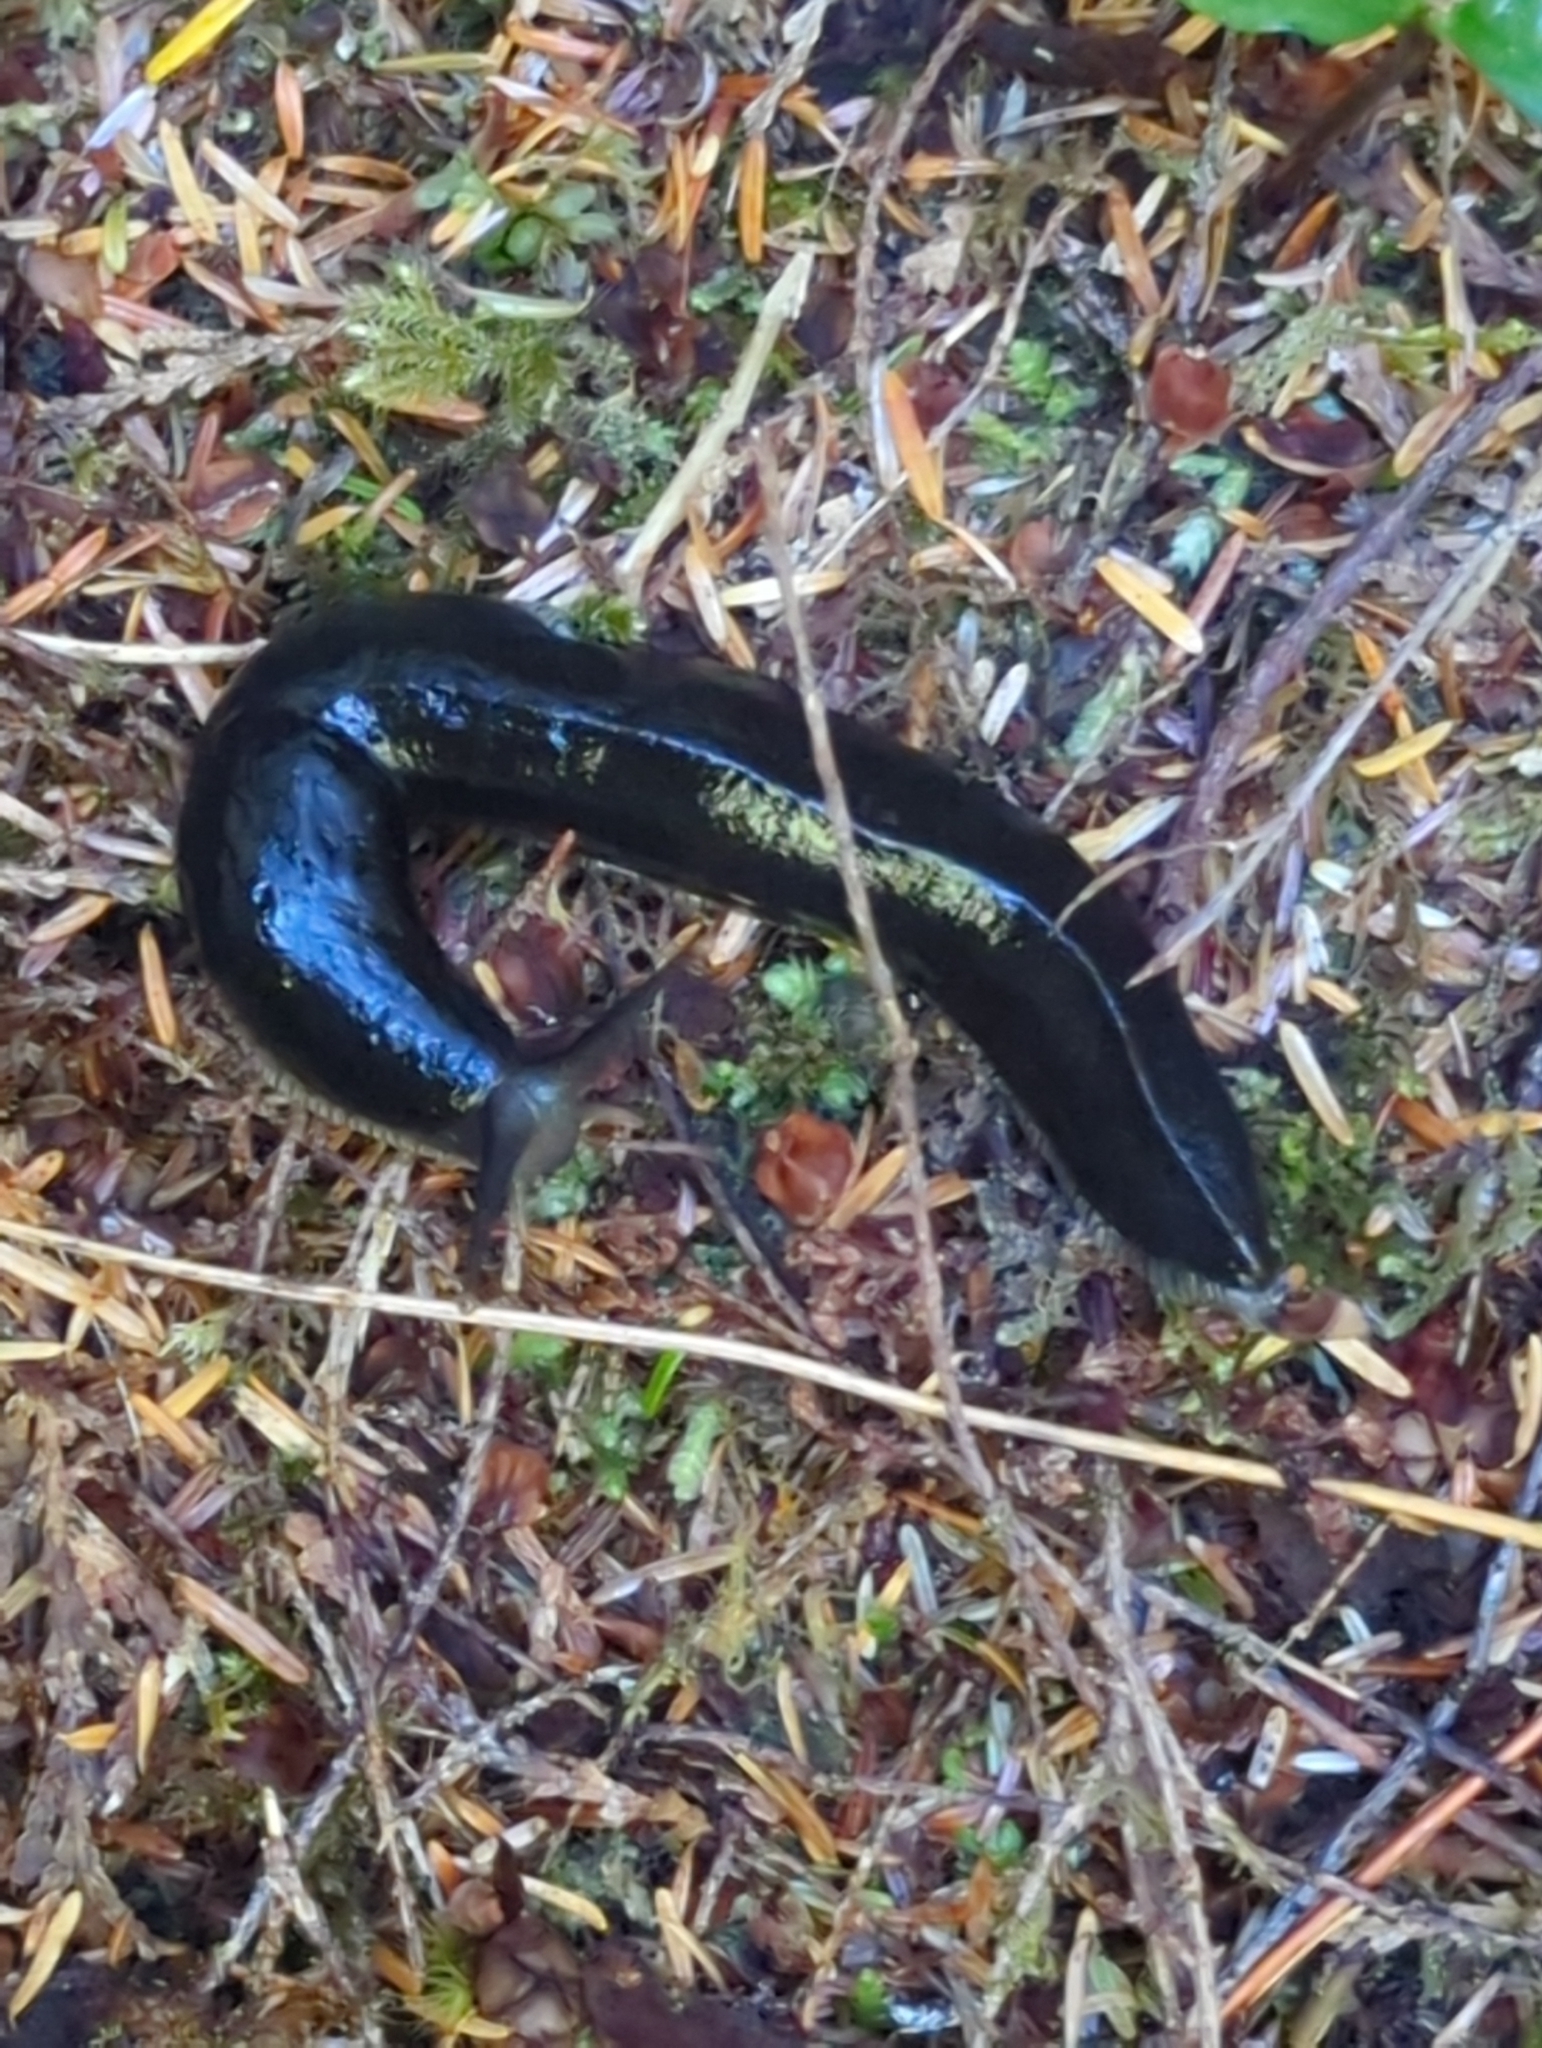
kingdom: Animalia
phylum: Mollusca
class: Gastropoda
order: Stylommatophora
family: Ariolimacidae
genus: Ariolimax
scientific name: Ariolimax columbianus
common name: Pacific banana slug
